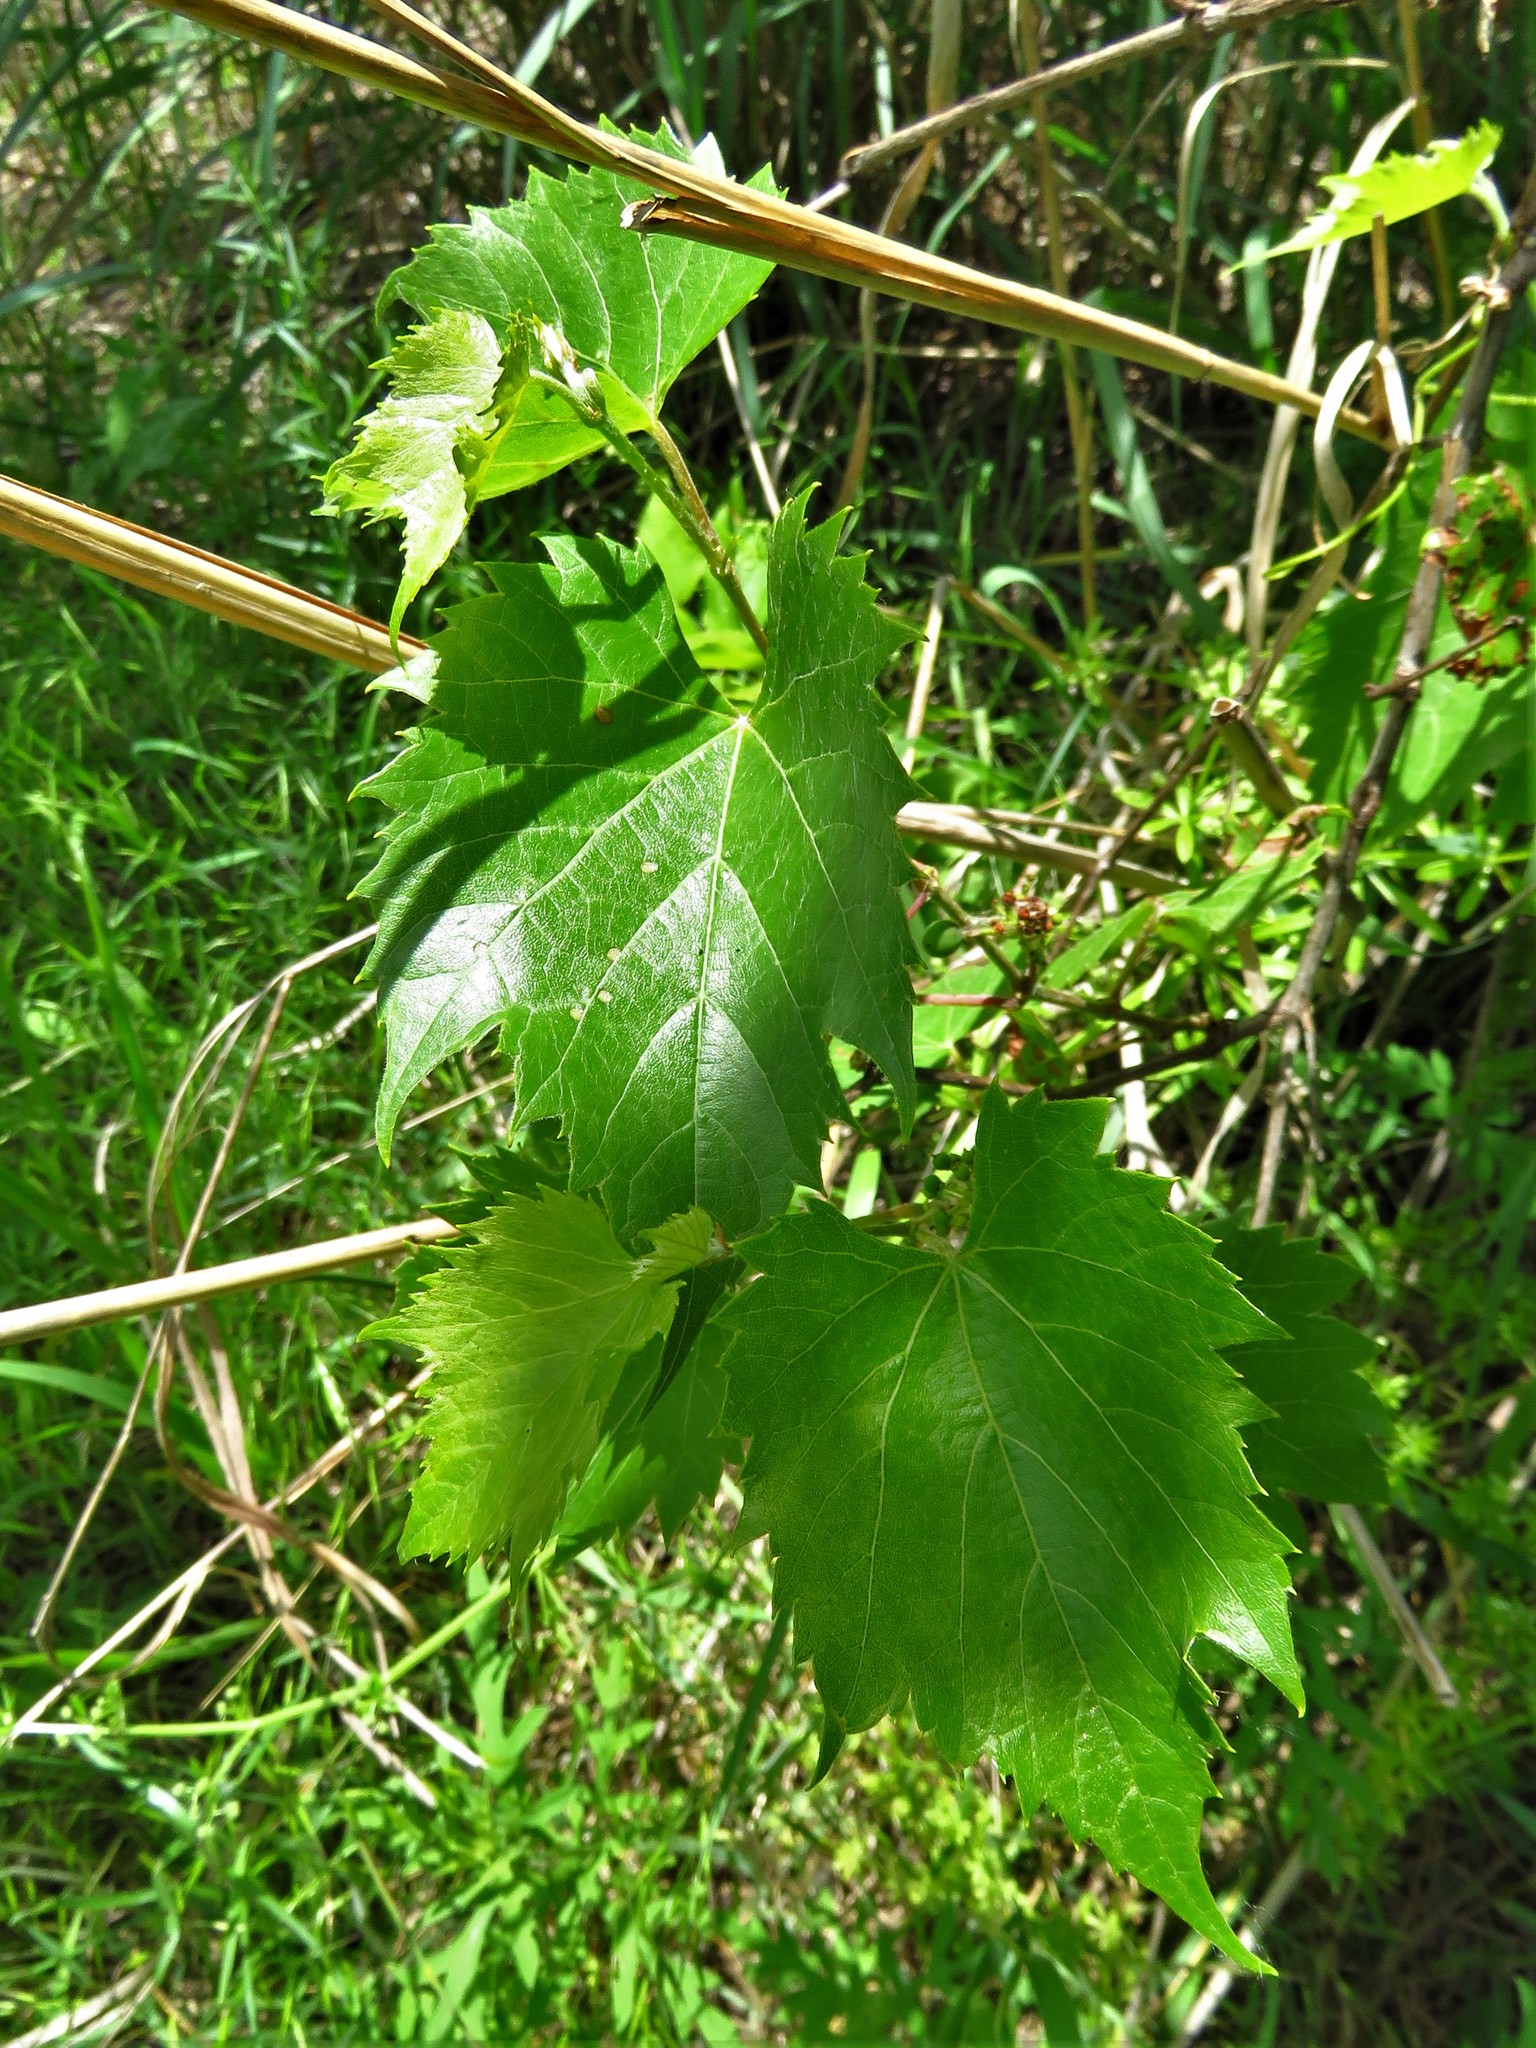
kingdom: Plantae
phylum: Tracheophyta
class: Magnoliopsida
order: Vitales
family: Vitaceae
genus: Vitis
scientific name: Vitis riparia
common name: Frost grape
